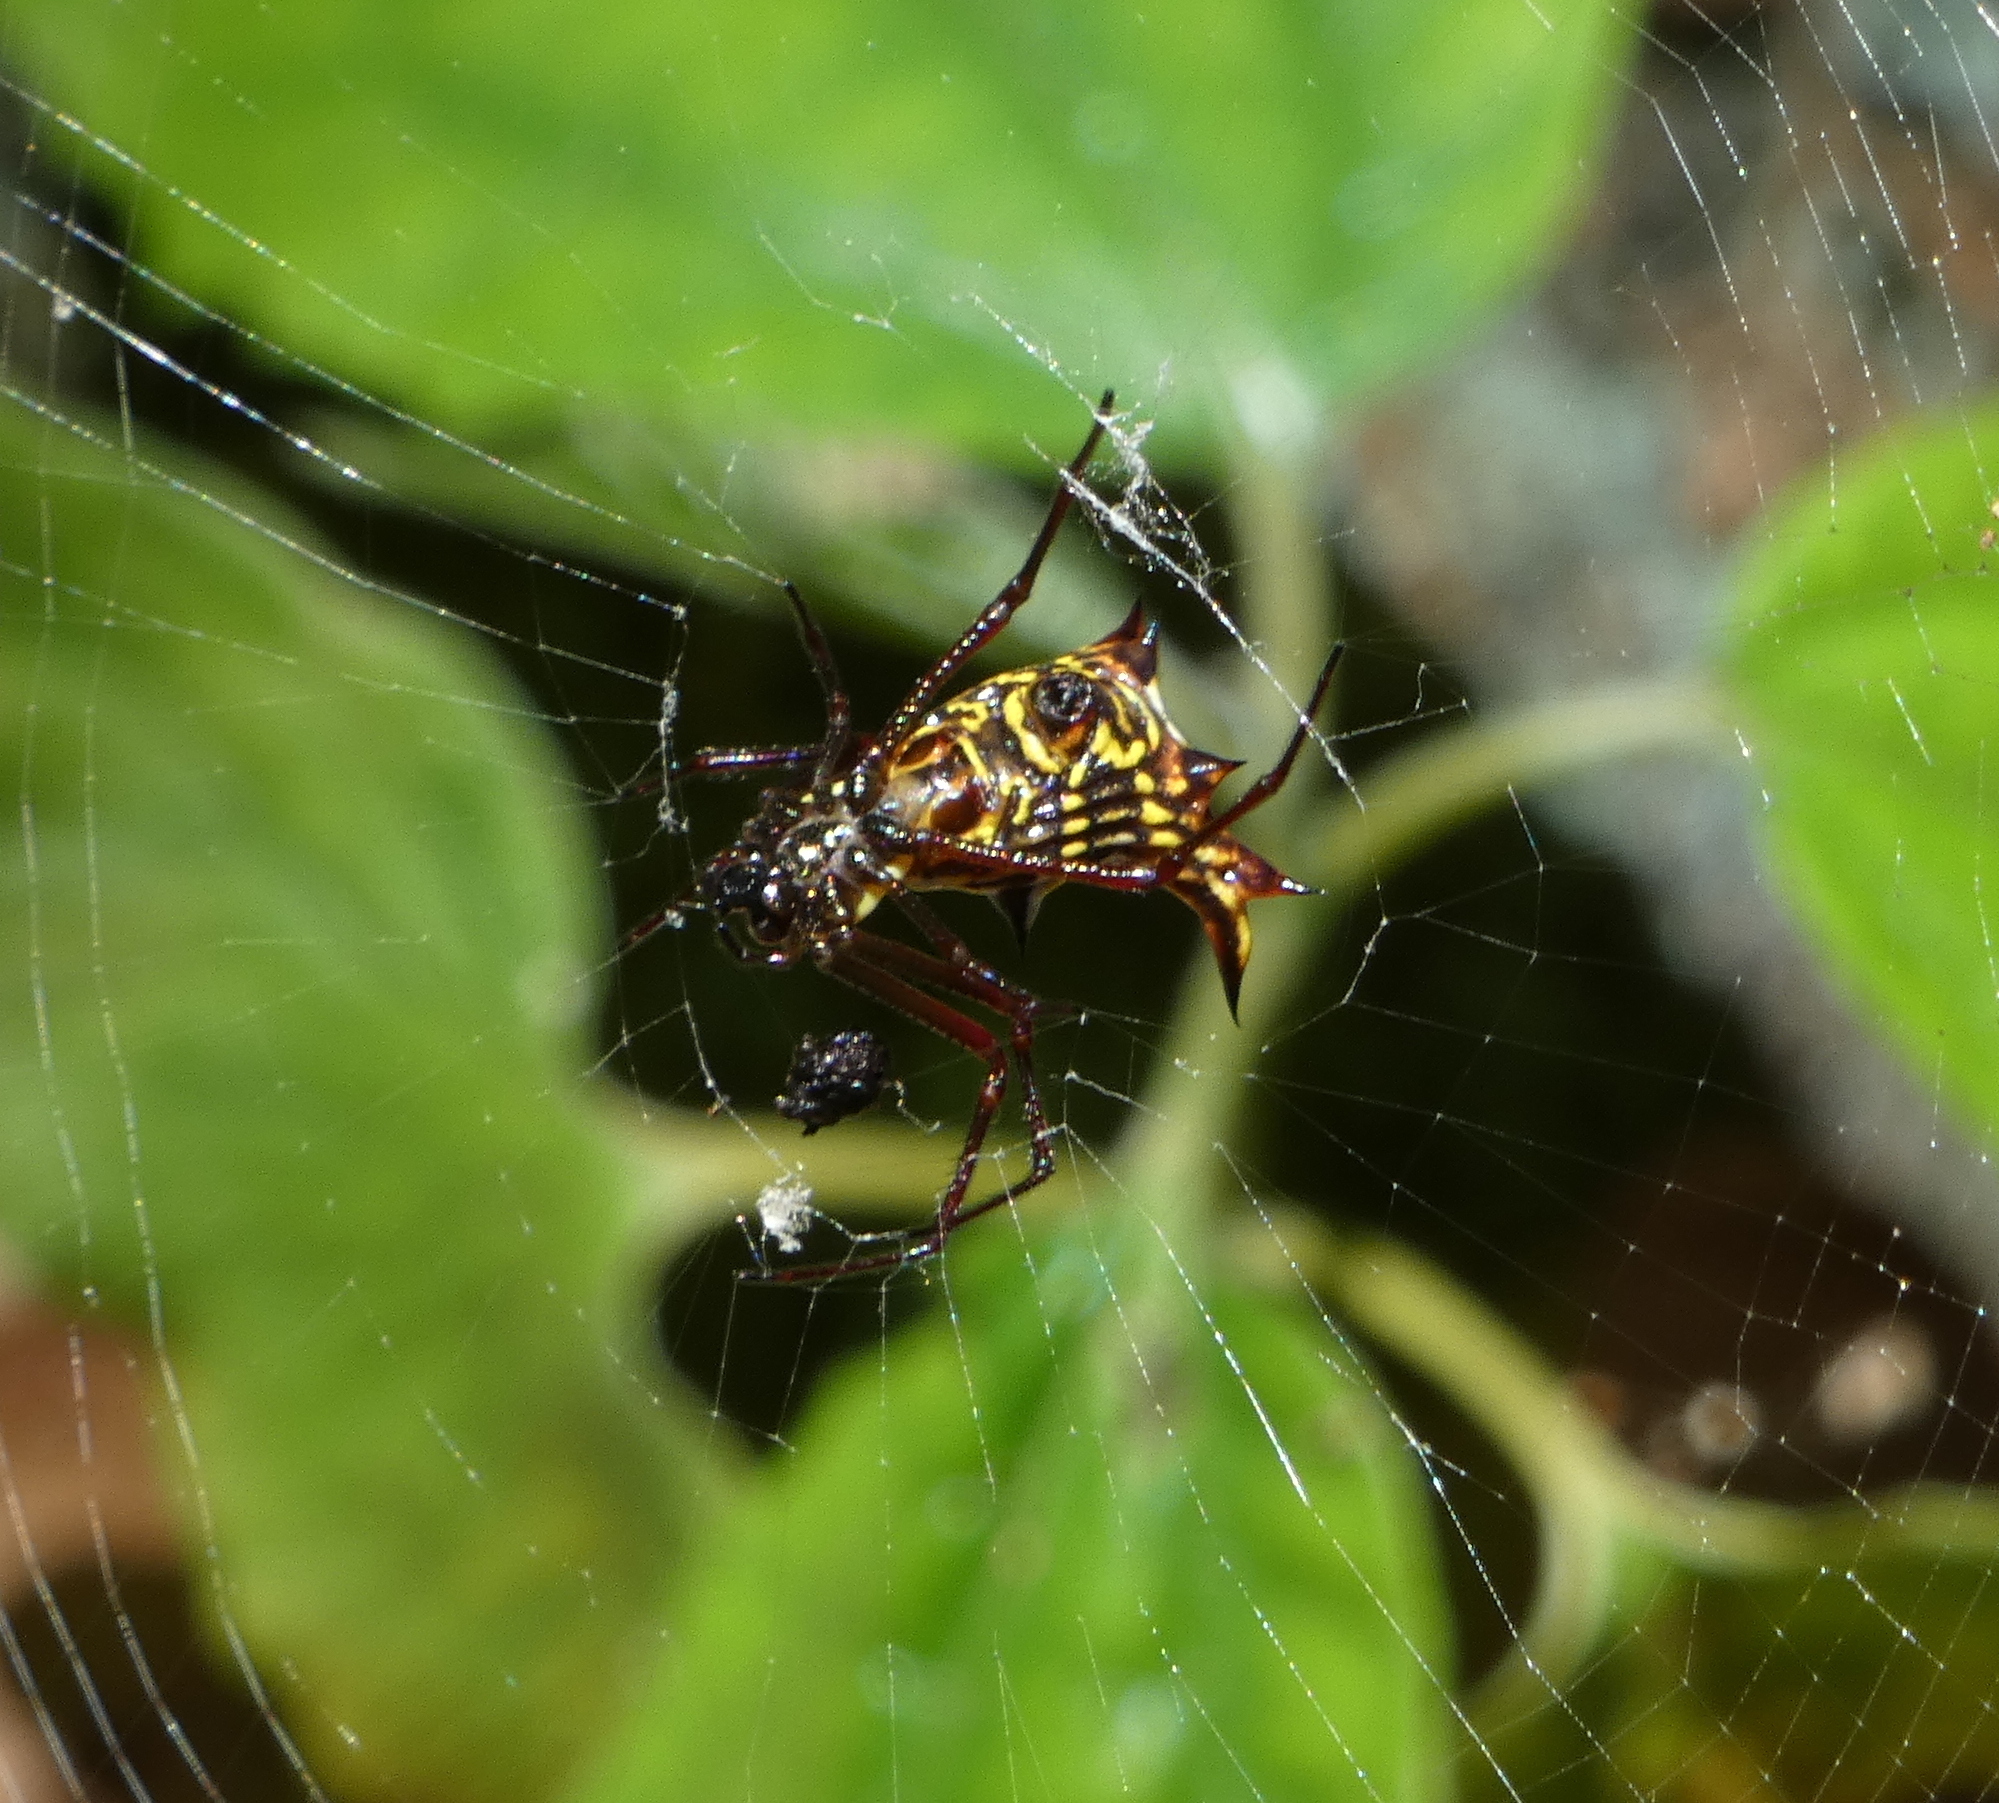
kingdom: Animalia
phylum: Arthropoda
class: Arachnida
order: Araneae
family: Araneidae
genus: Micrathena
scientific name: Micrathena fissispina
